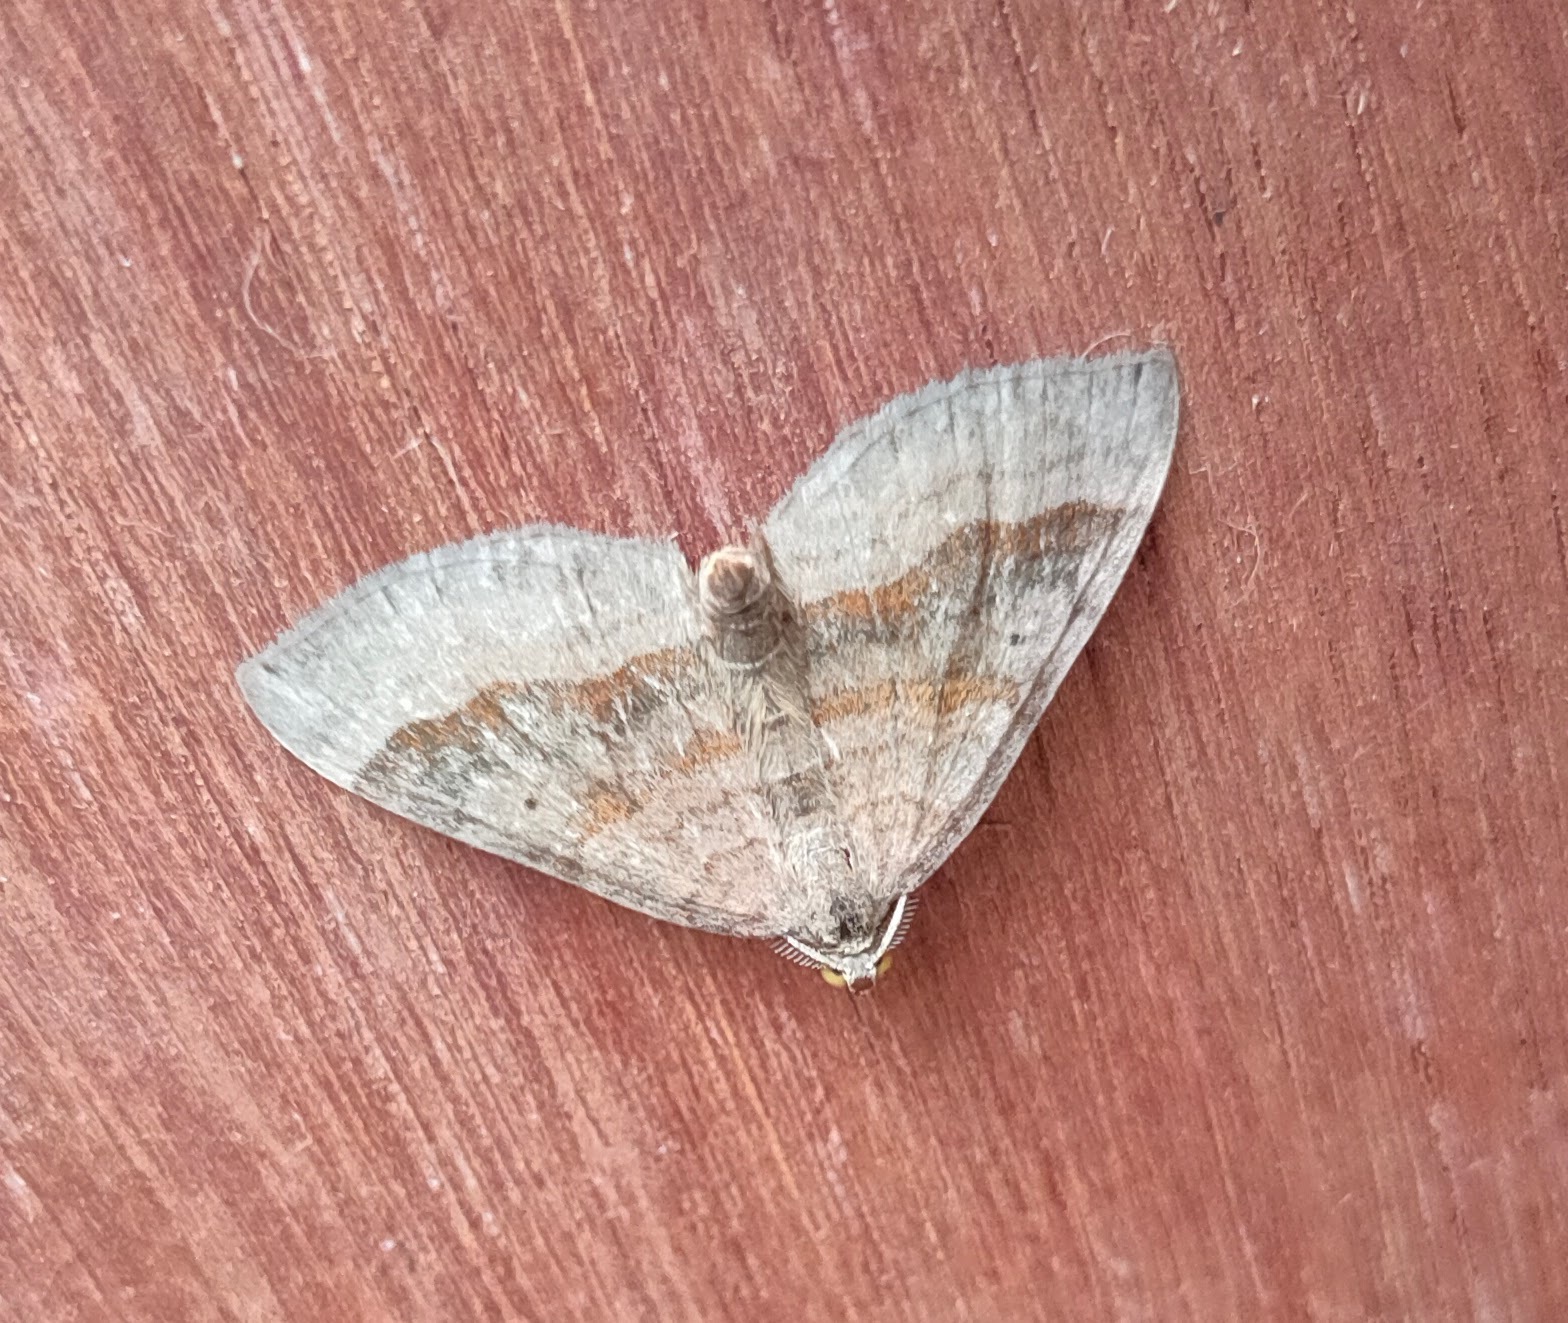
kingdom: Animalia
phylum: Arthropoda
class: Insecta
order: Lepidoptera
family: Geometridae
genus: Scotopteryx
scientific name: Scotopteryx chenopodiata
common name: Shaded broad-bar
